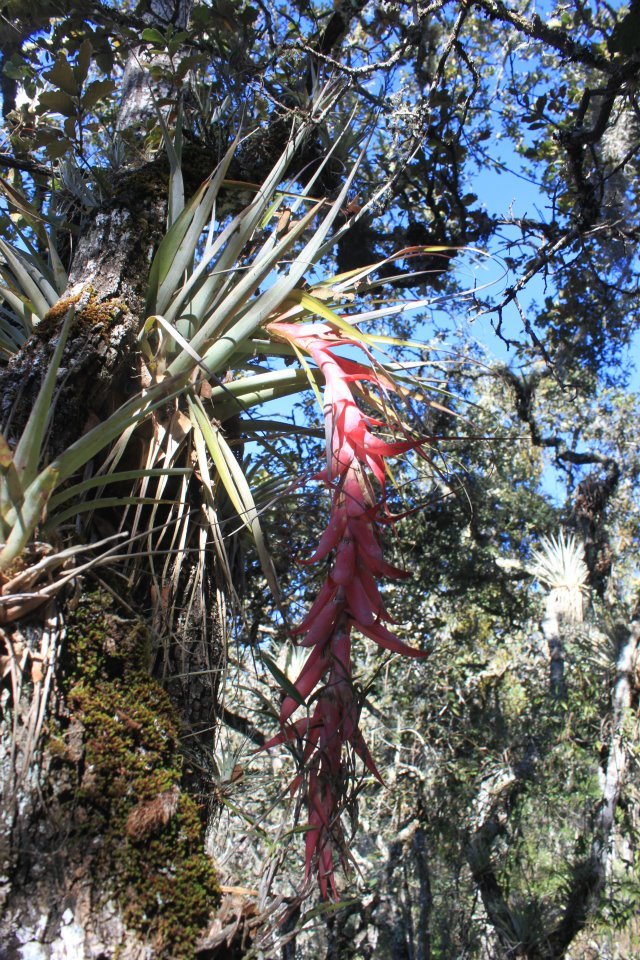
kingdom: Plantae
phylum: Tracheophyta
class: Liliopsida
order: Poales
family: Bromeliaceae
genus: Tillandsia
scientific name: Tillandsia prodigiosa
